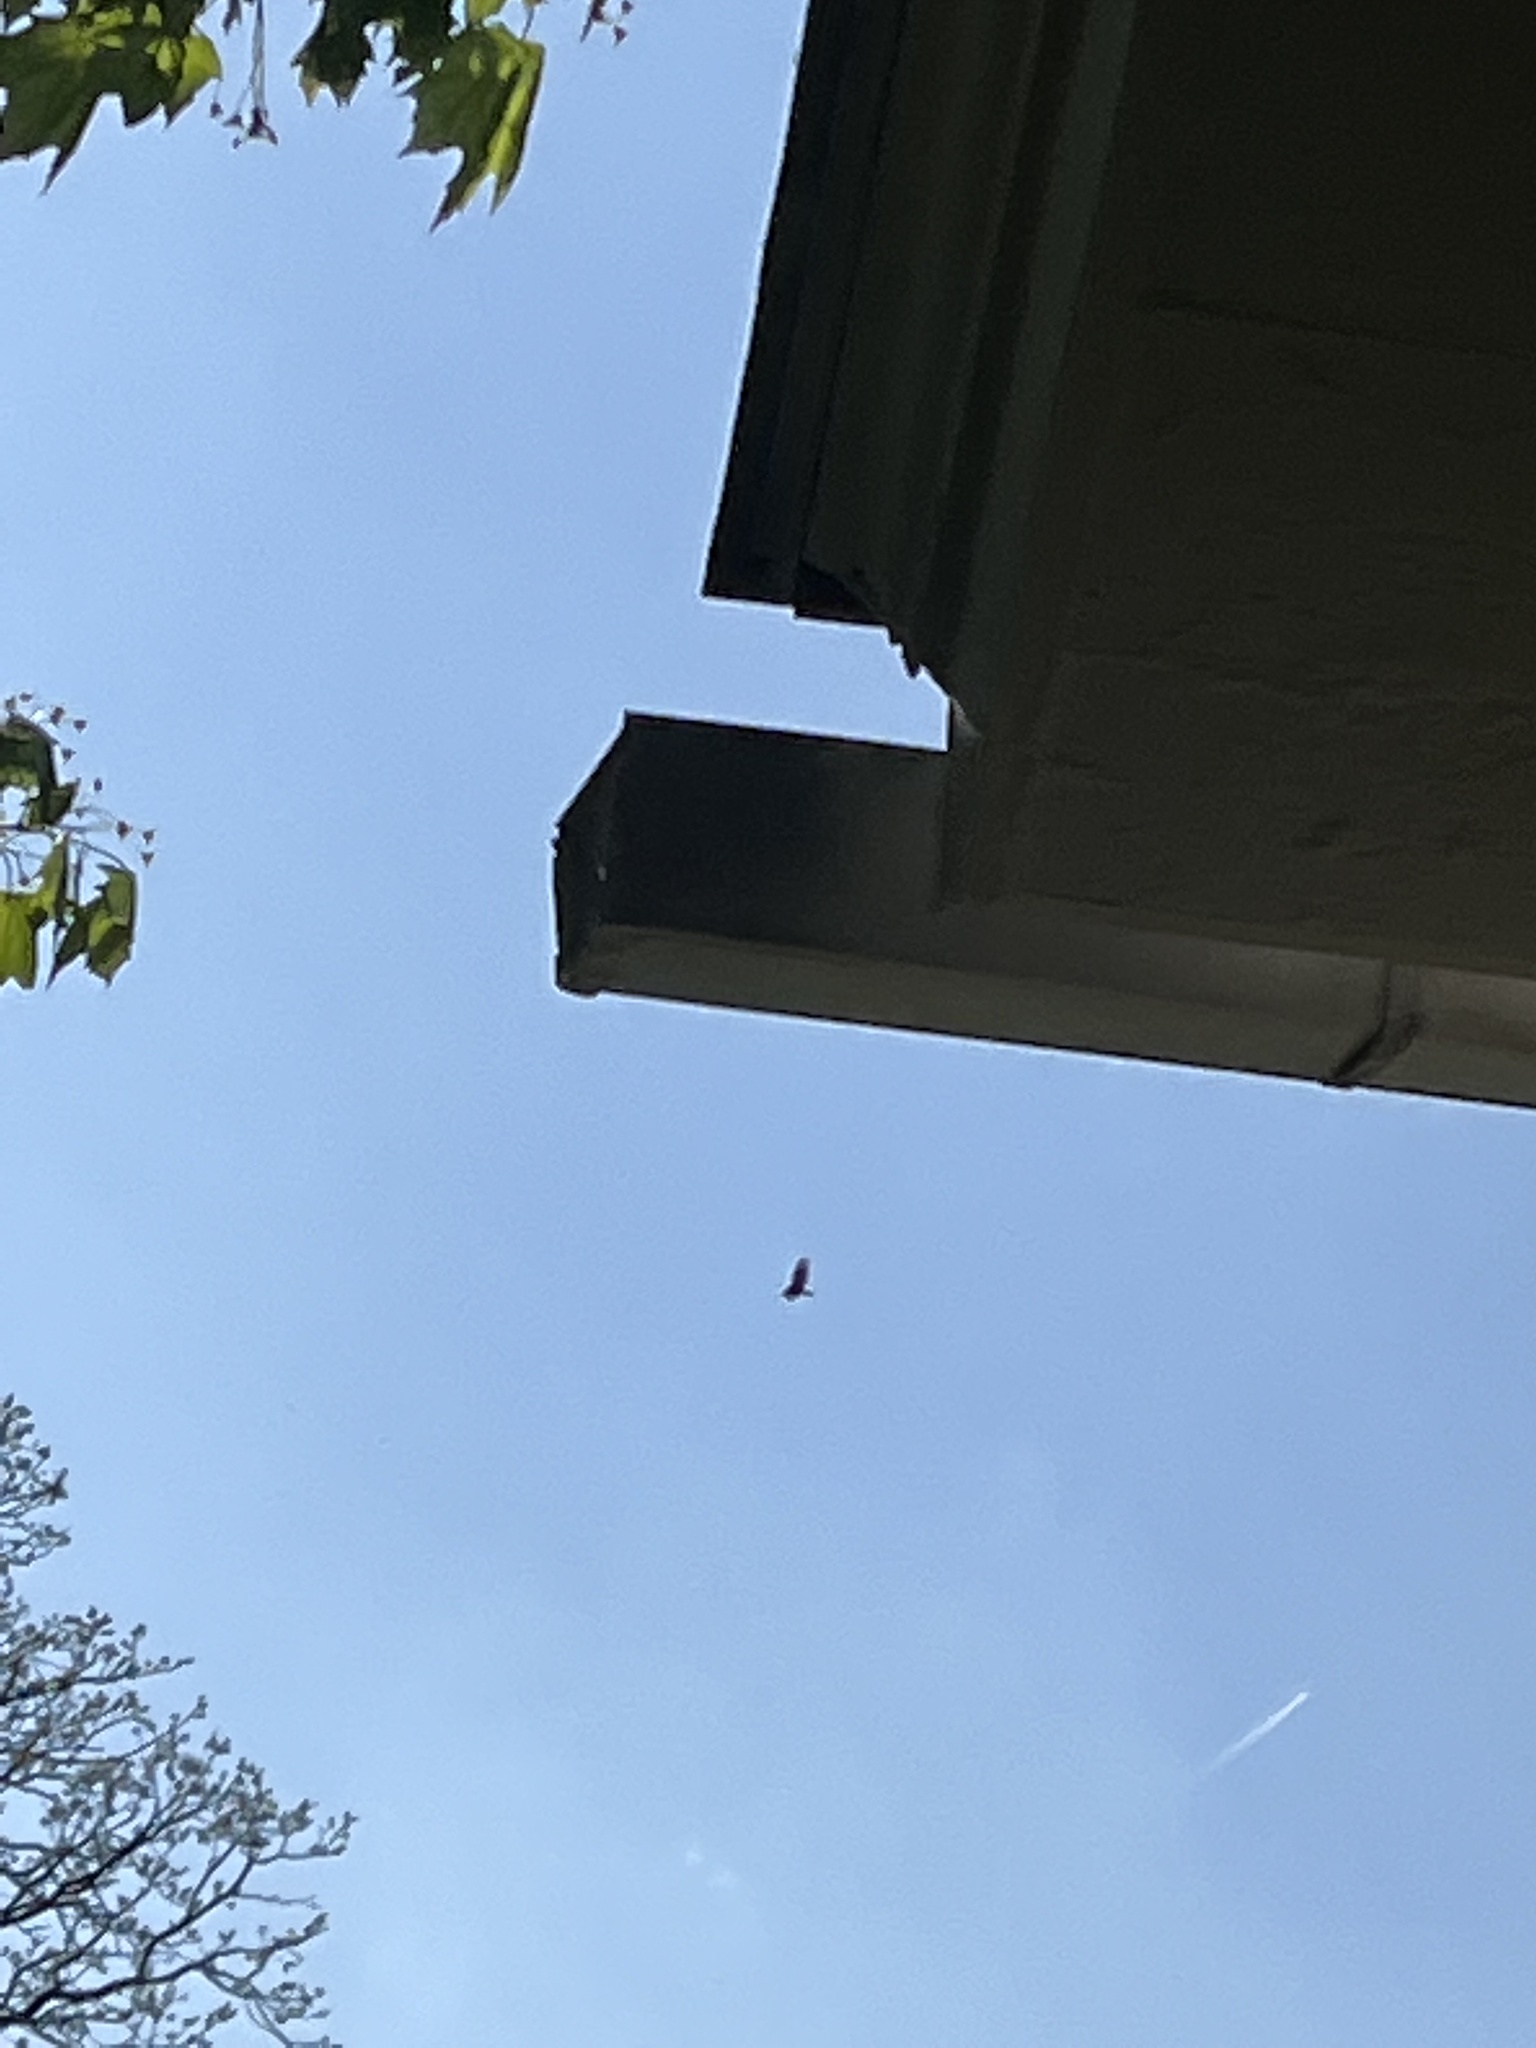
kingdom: Animalia
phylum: Chordata
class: Aves
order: Accipitriformes
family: Cathartidae
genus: Cathartes
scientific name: Cathartes aura
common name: Turkey vulture
